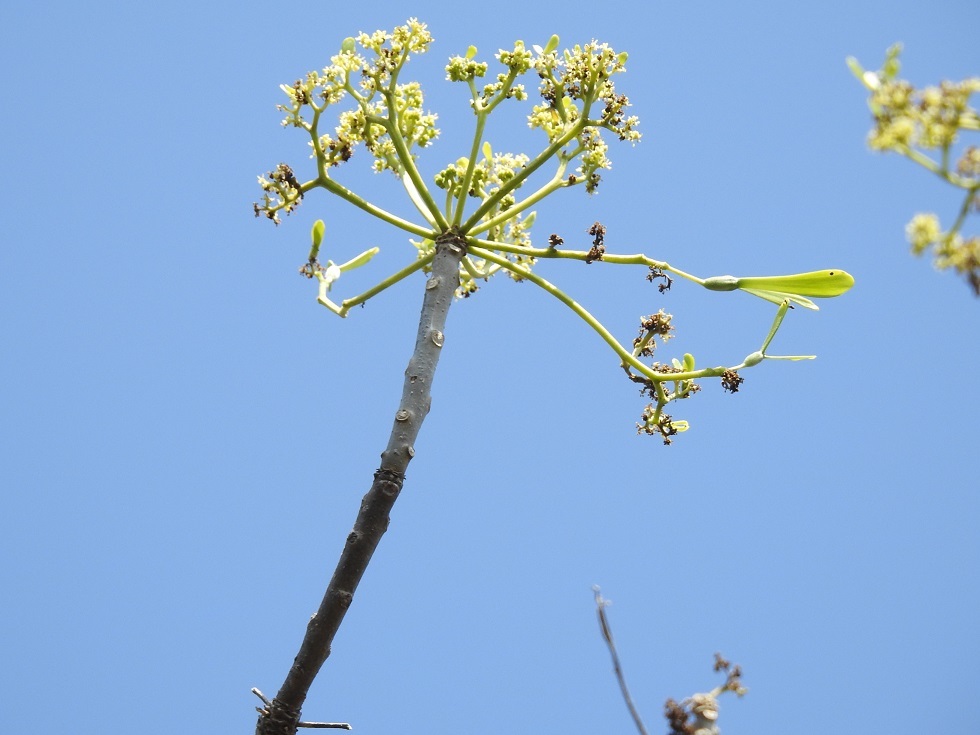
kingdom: Plantae
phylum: Tracheophyta
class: Magnoliopsida
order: Laurales
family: Hernandiaceae
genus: Gyrocarpus
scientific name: Gyrocarpus mocinoi
